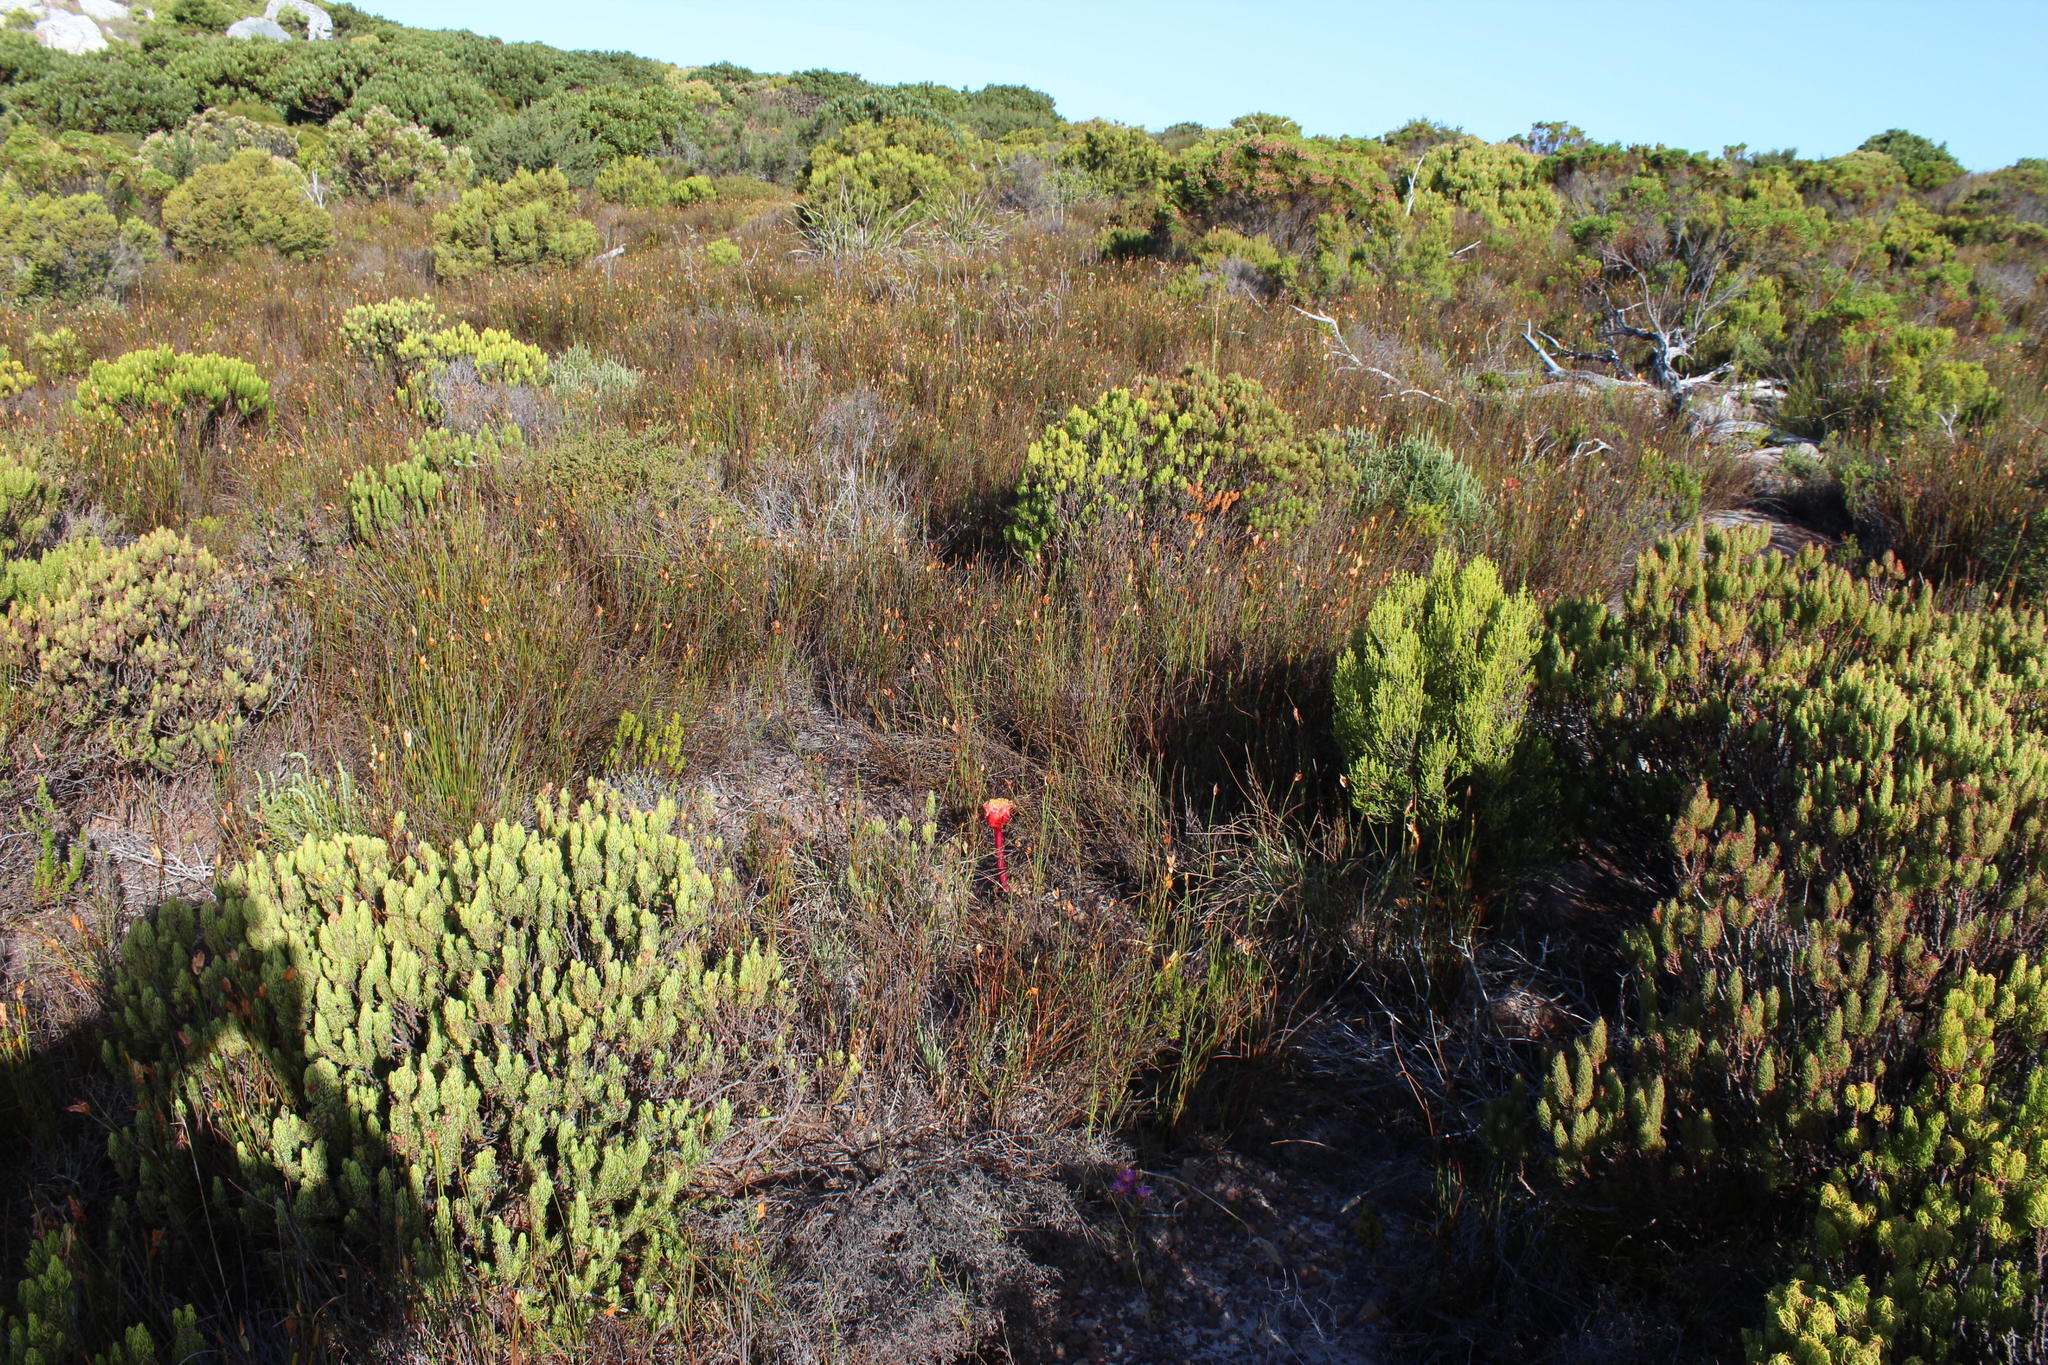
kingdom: Plantae
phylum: Tracheophyta
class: Liliopsida
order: Asparagales
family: Amaryllidaceae
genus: Haemanthus
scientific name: Haemanthus sanguineus
